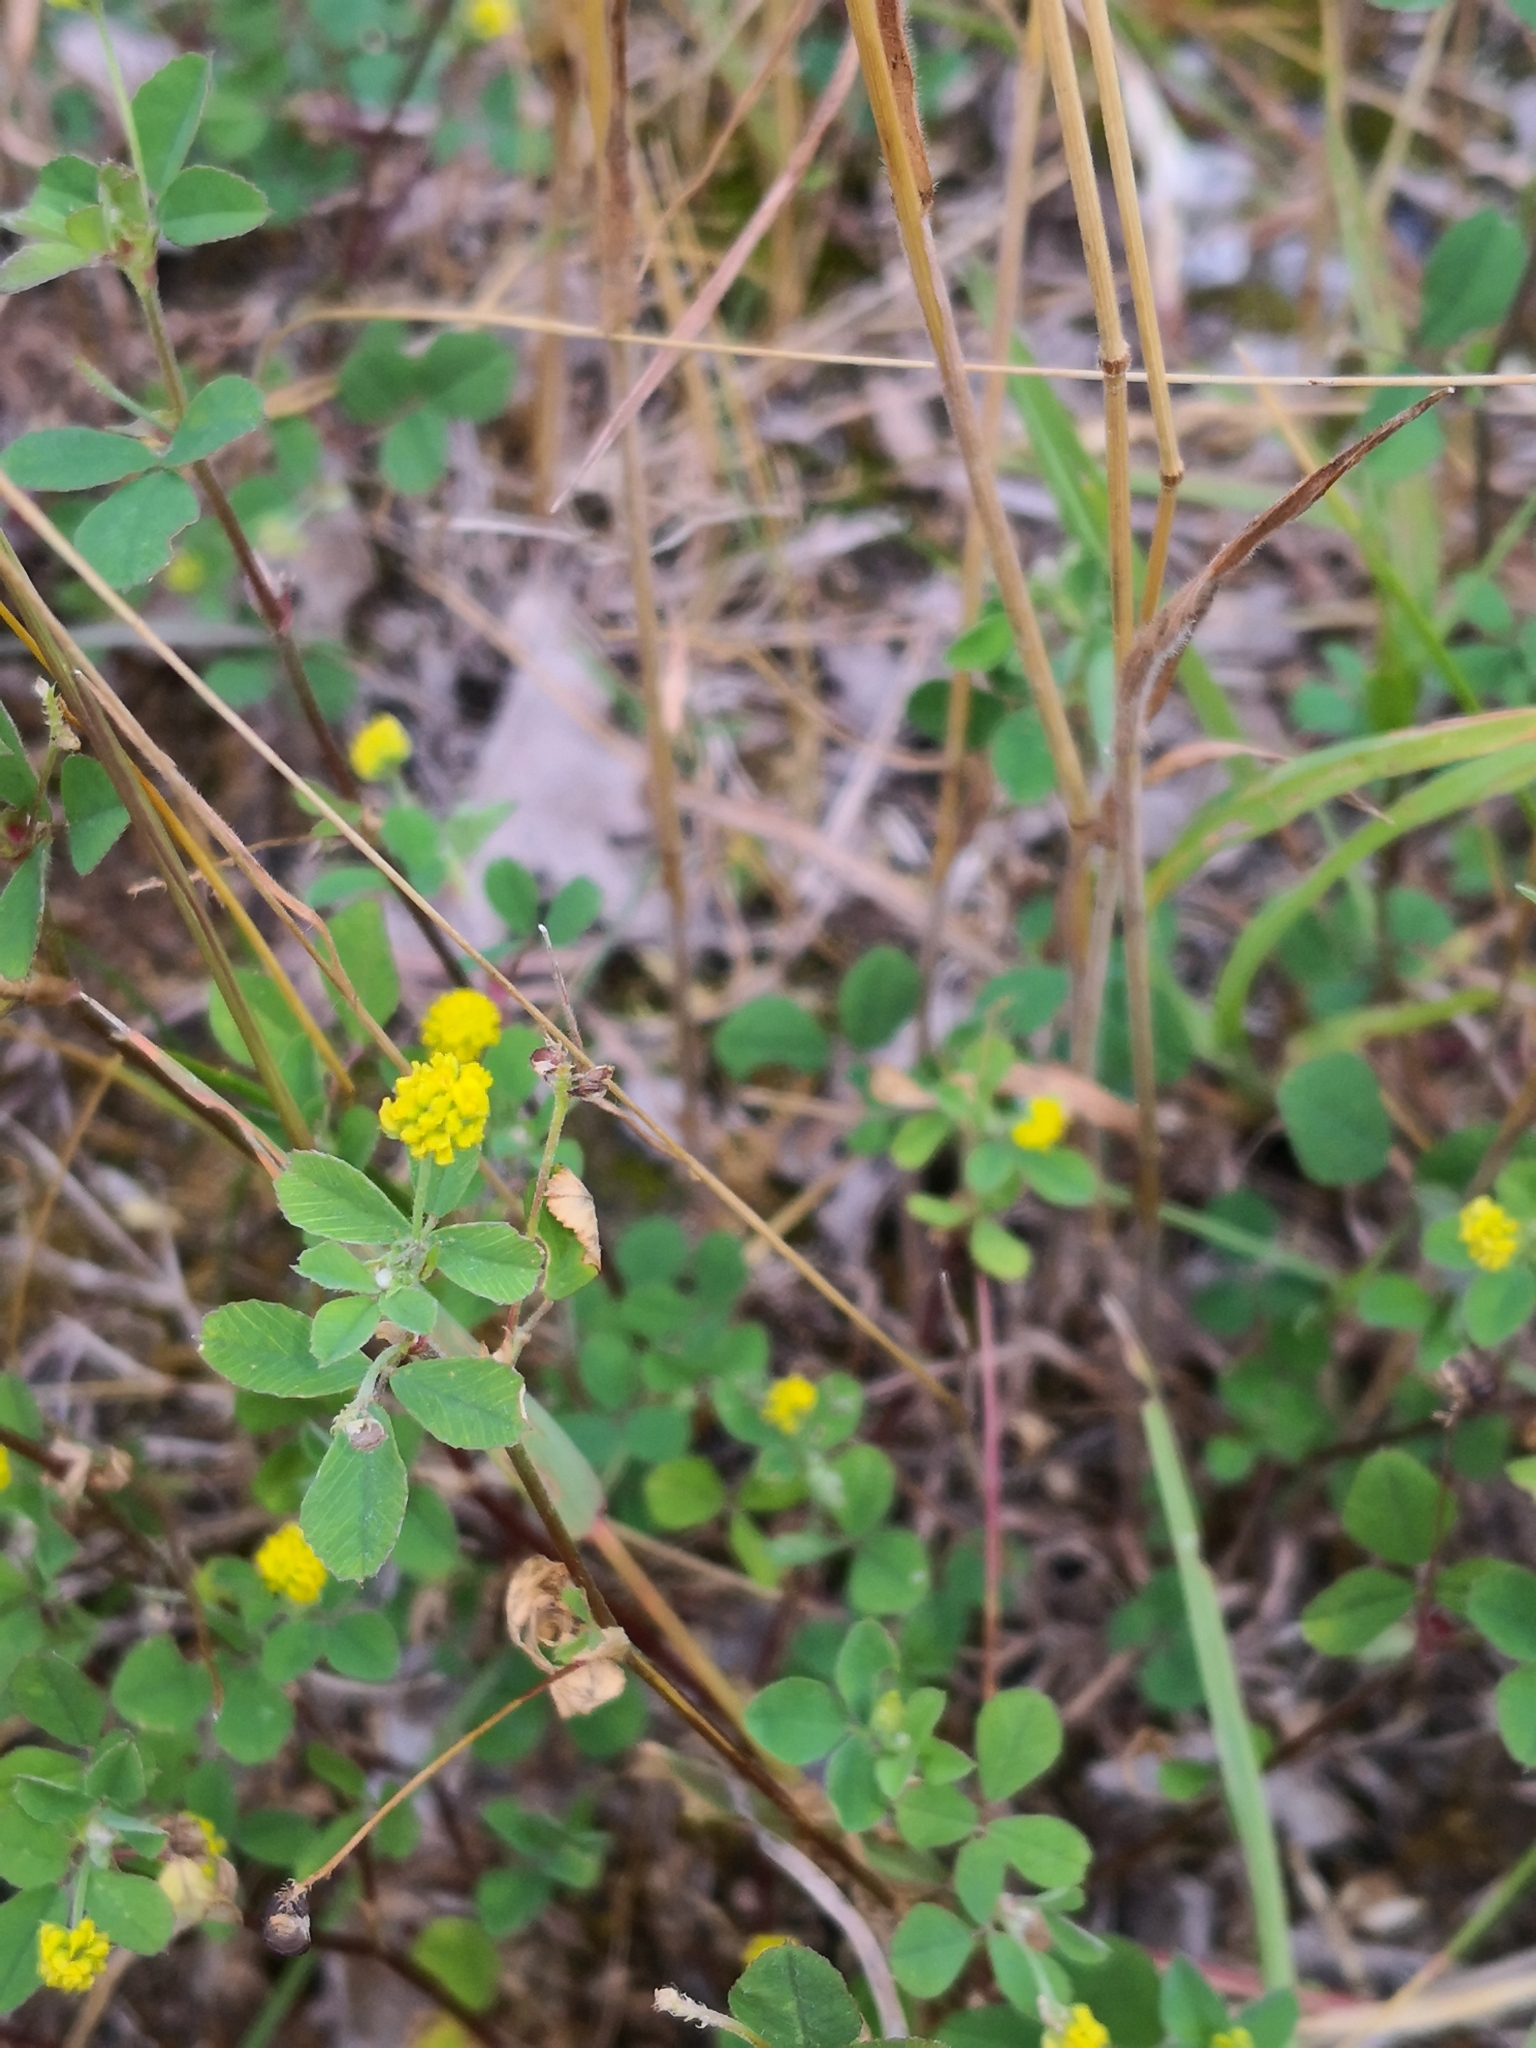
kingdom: Plantae
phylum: Tracheophyta
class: Magnoliopsida
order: Fabales
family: Fabaceae
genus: Medicago
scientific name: Medicago lupulina
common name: Black medick
